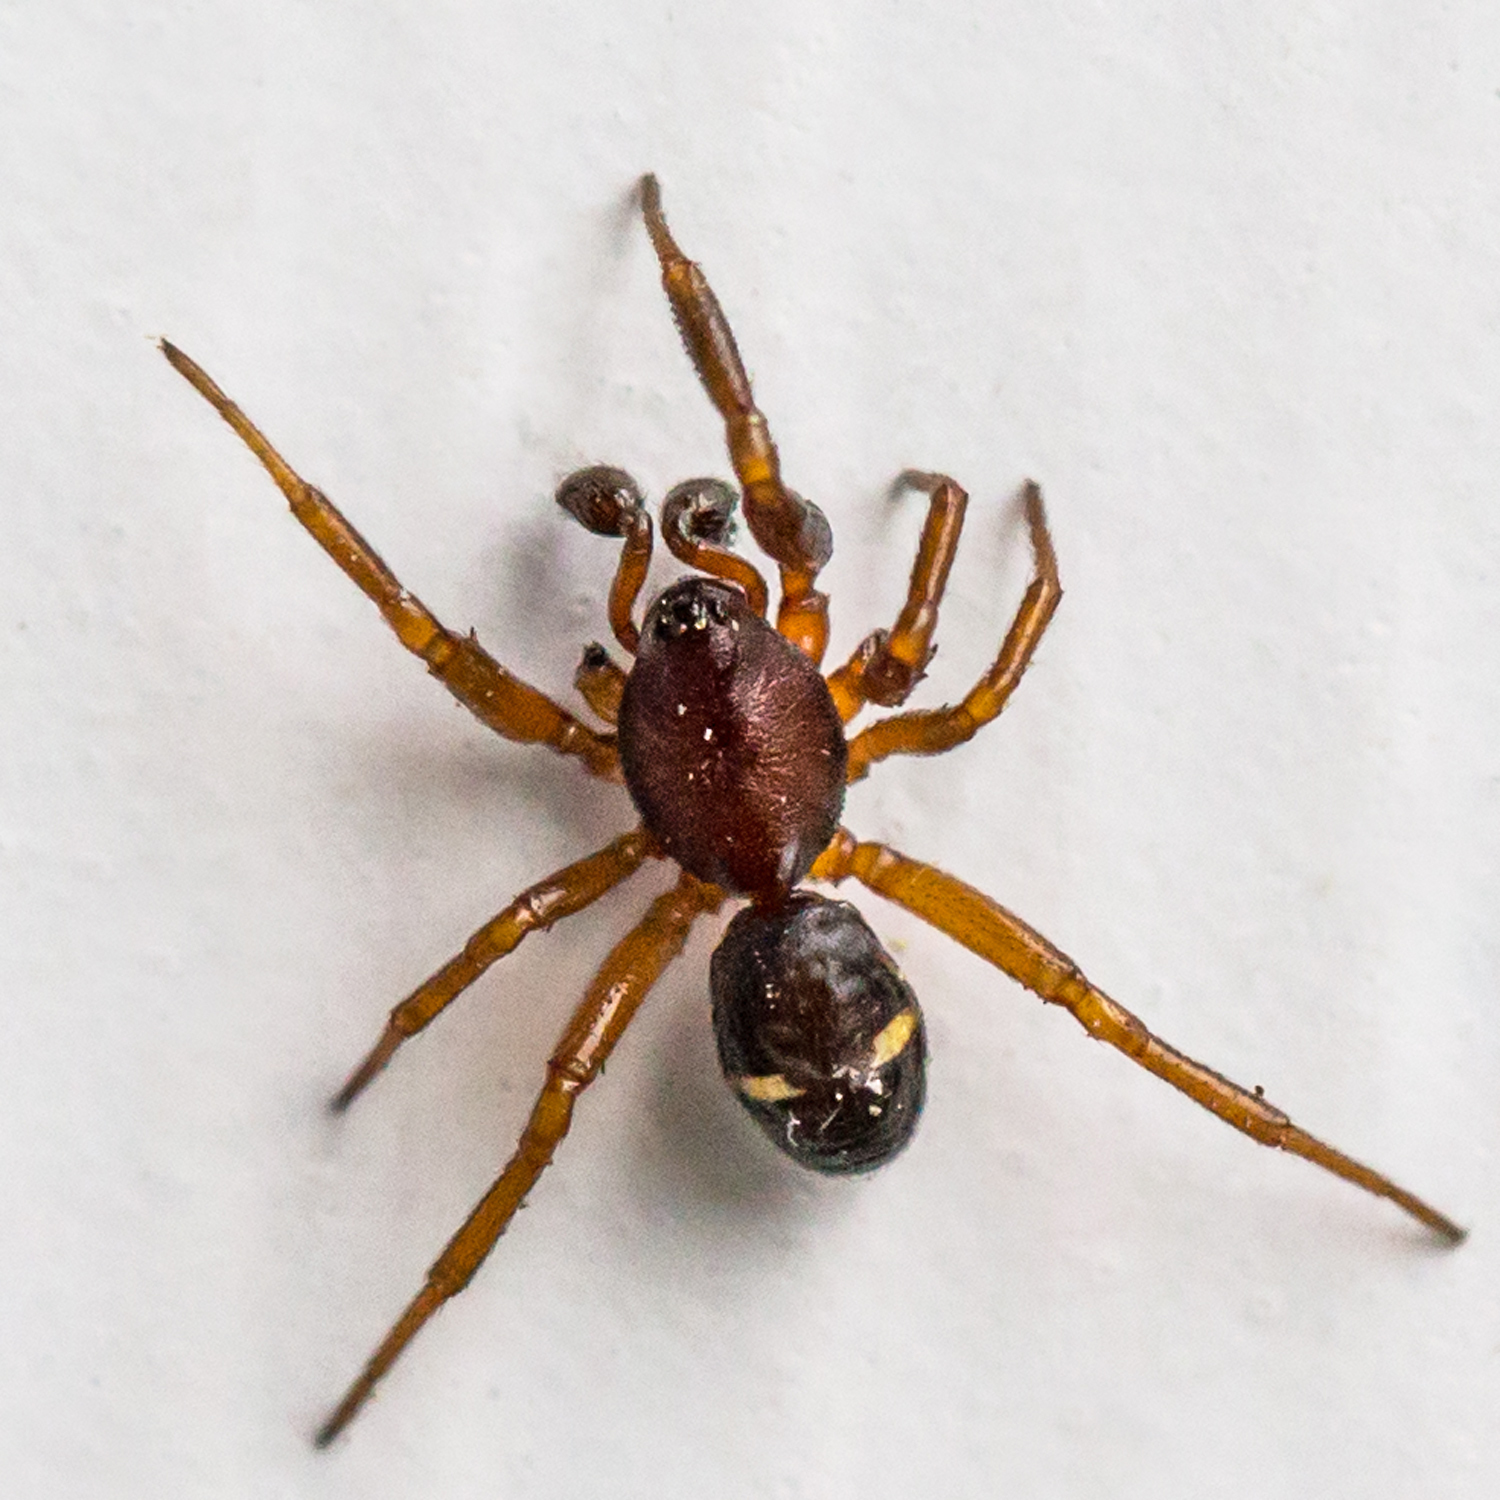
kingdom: Animalia
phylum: Arthropoda
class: Arachnida
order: Araneae
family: Theridiidae
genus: Asagena
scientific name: Asagena americana
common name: Two-spotted cobweb spider
